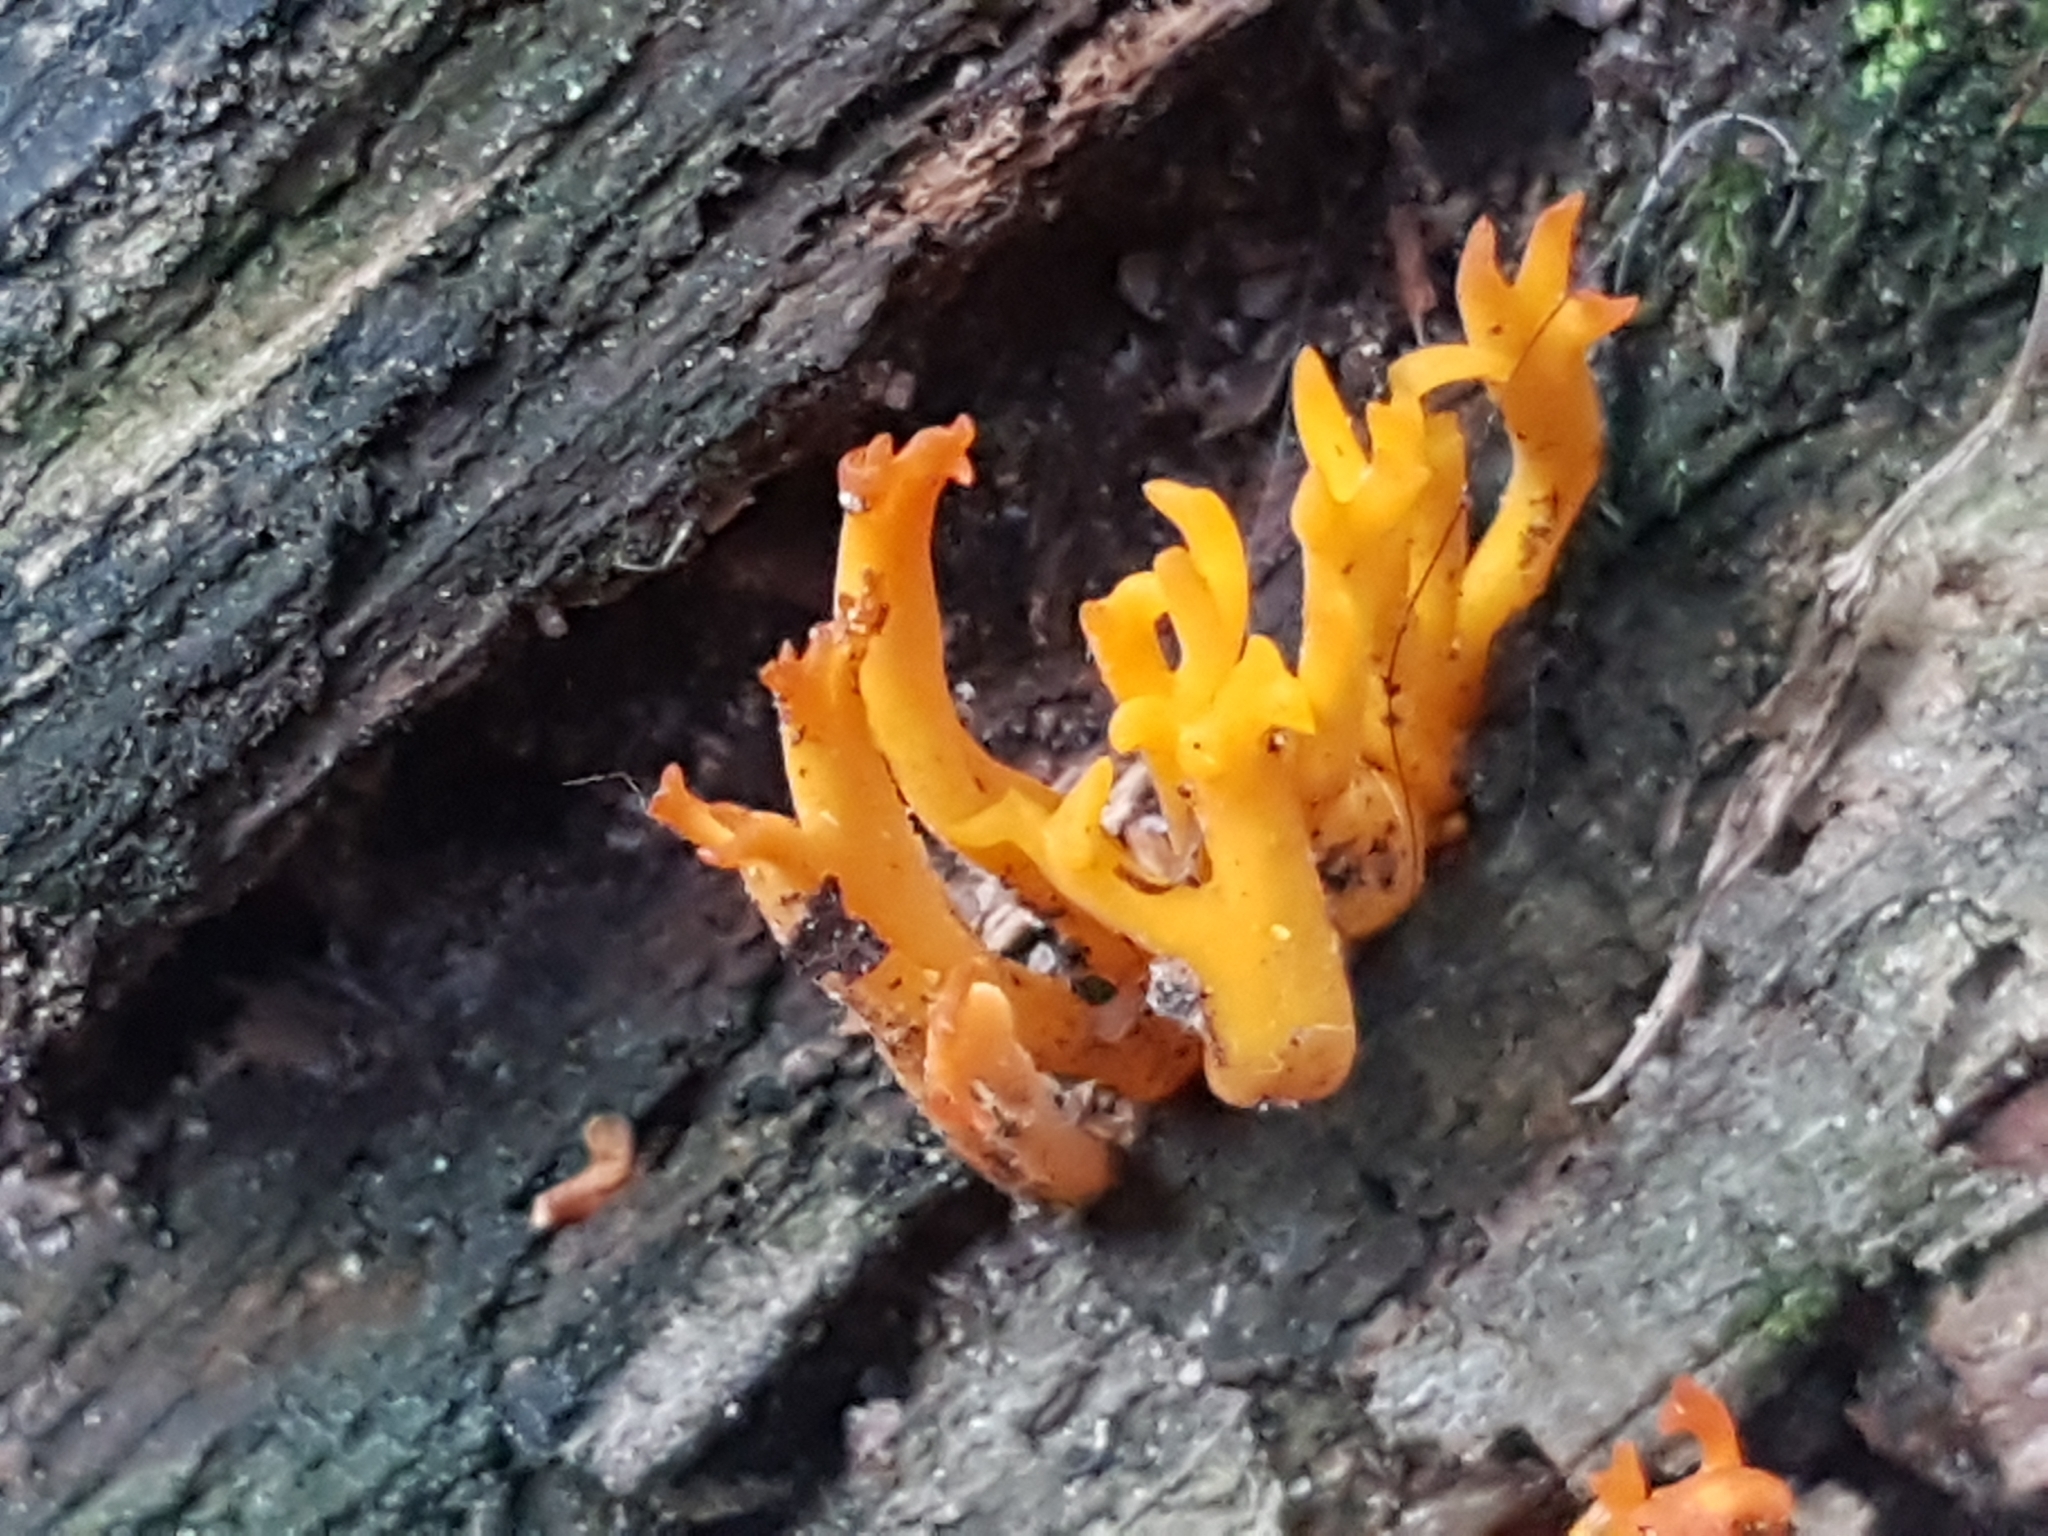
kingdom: Fungi
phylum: Basidiomycota
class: Dacrymycetes
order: Dacrymycetales
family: Dacrymycetaceae
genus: Calocera
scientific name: Calocera viscosa
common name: Yellow stagshorn
